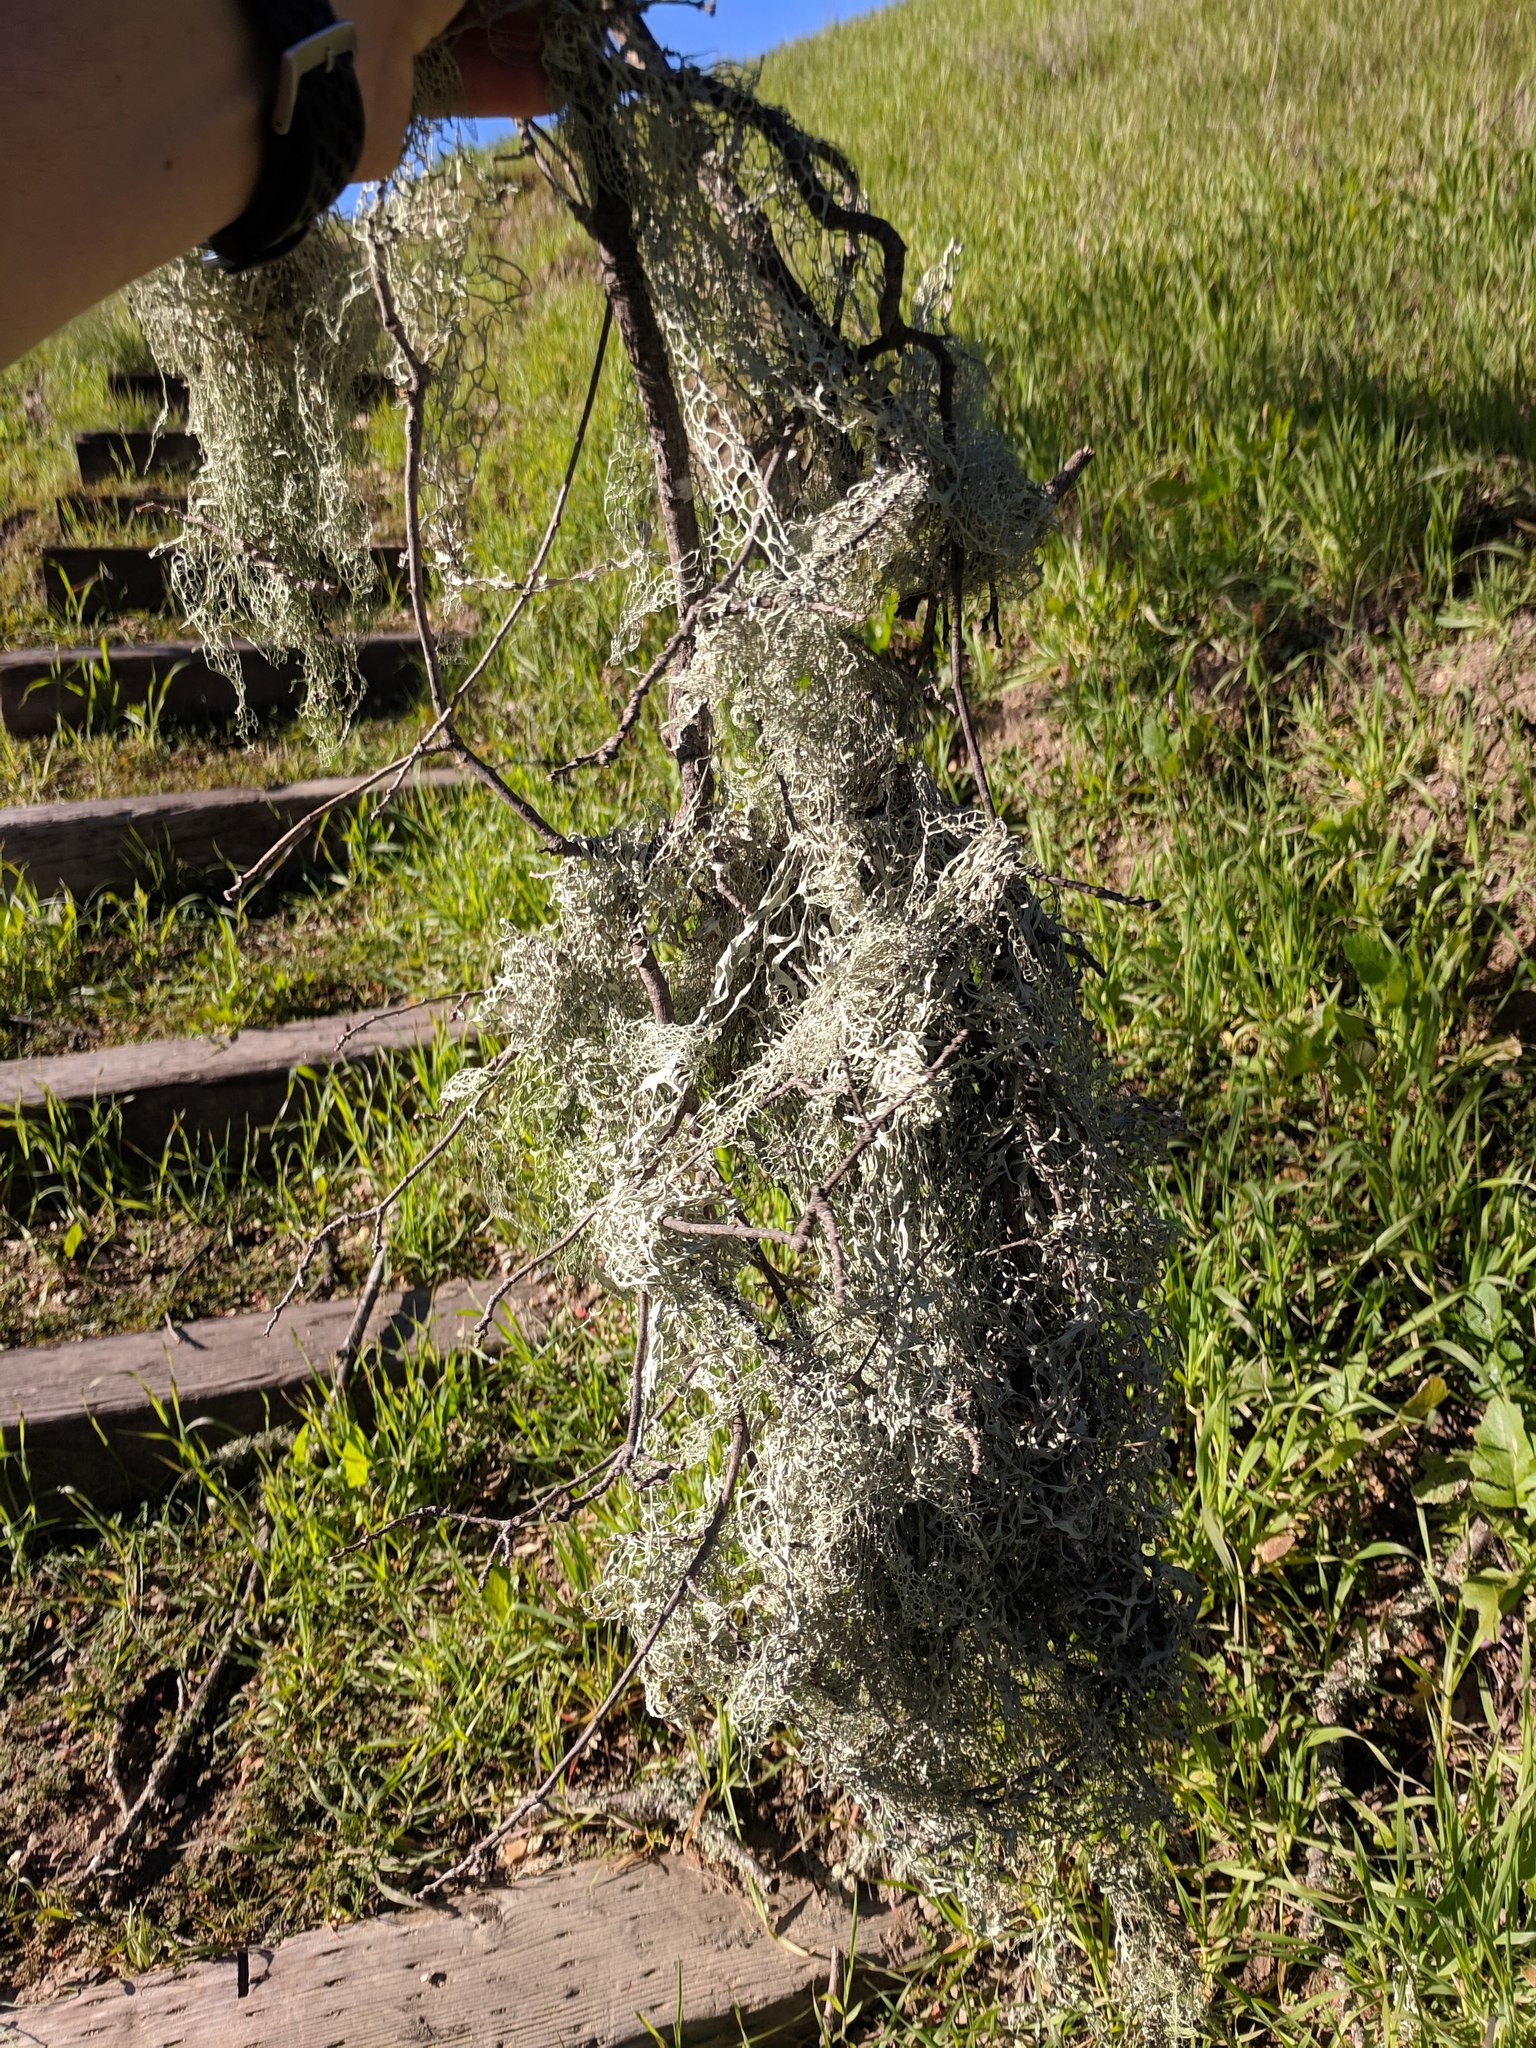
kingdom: Fungi
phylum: Ascomycota
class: Lecanoromycetes
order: Lecanorales
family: Ramalinaceae
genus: Ramalina
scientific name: Ramalina menziesii
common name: Lace lichen
